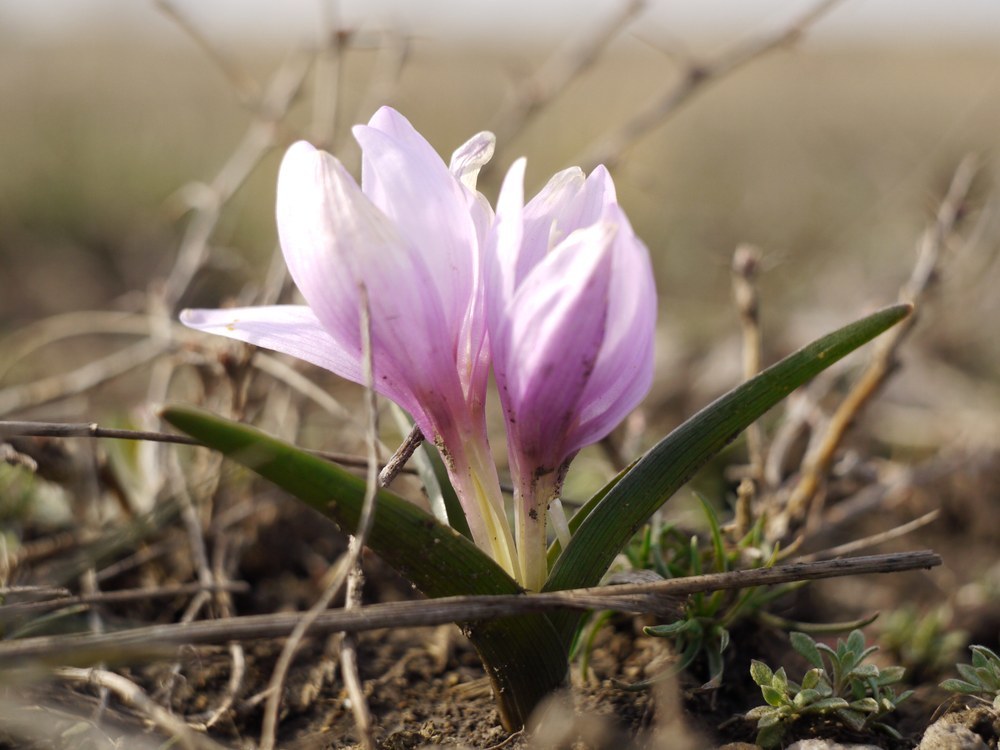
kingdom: Plantae
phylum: Tracheophyta
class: Liliopsida
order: Liliales
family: Colchicaceae
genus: Colchicum
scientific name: Colchicum bulbocodium
